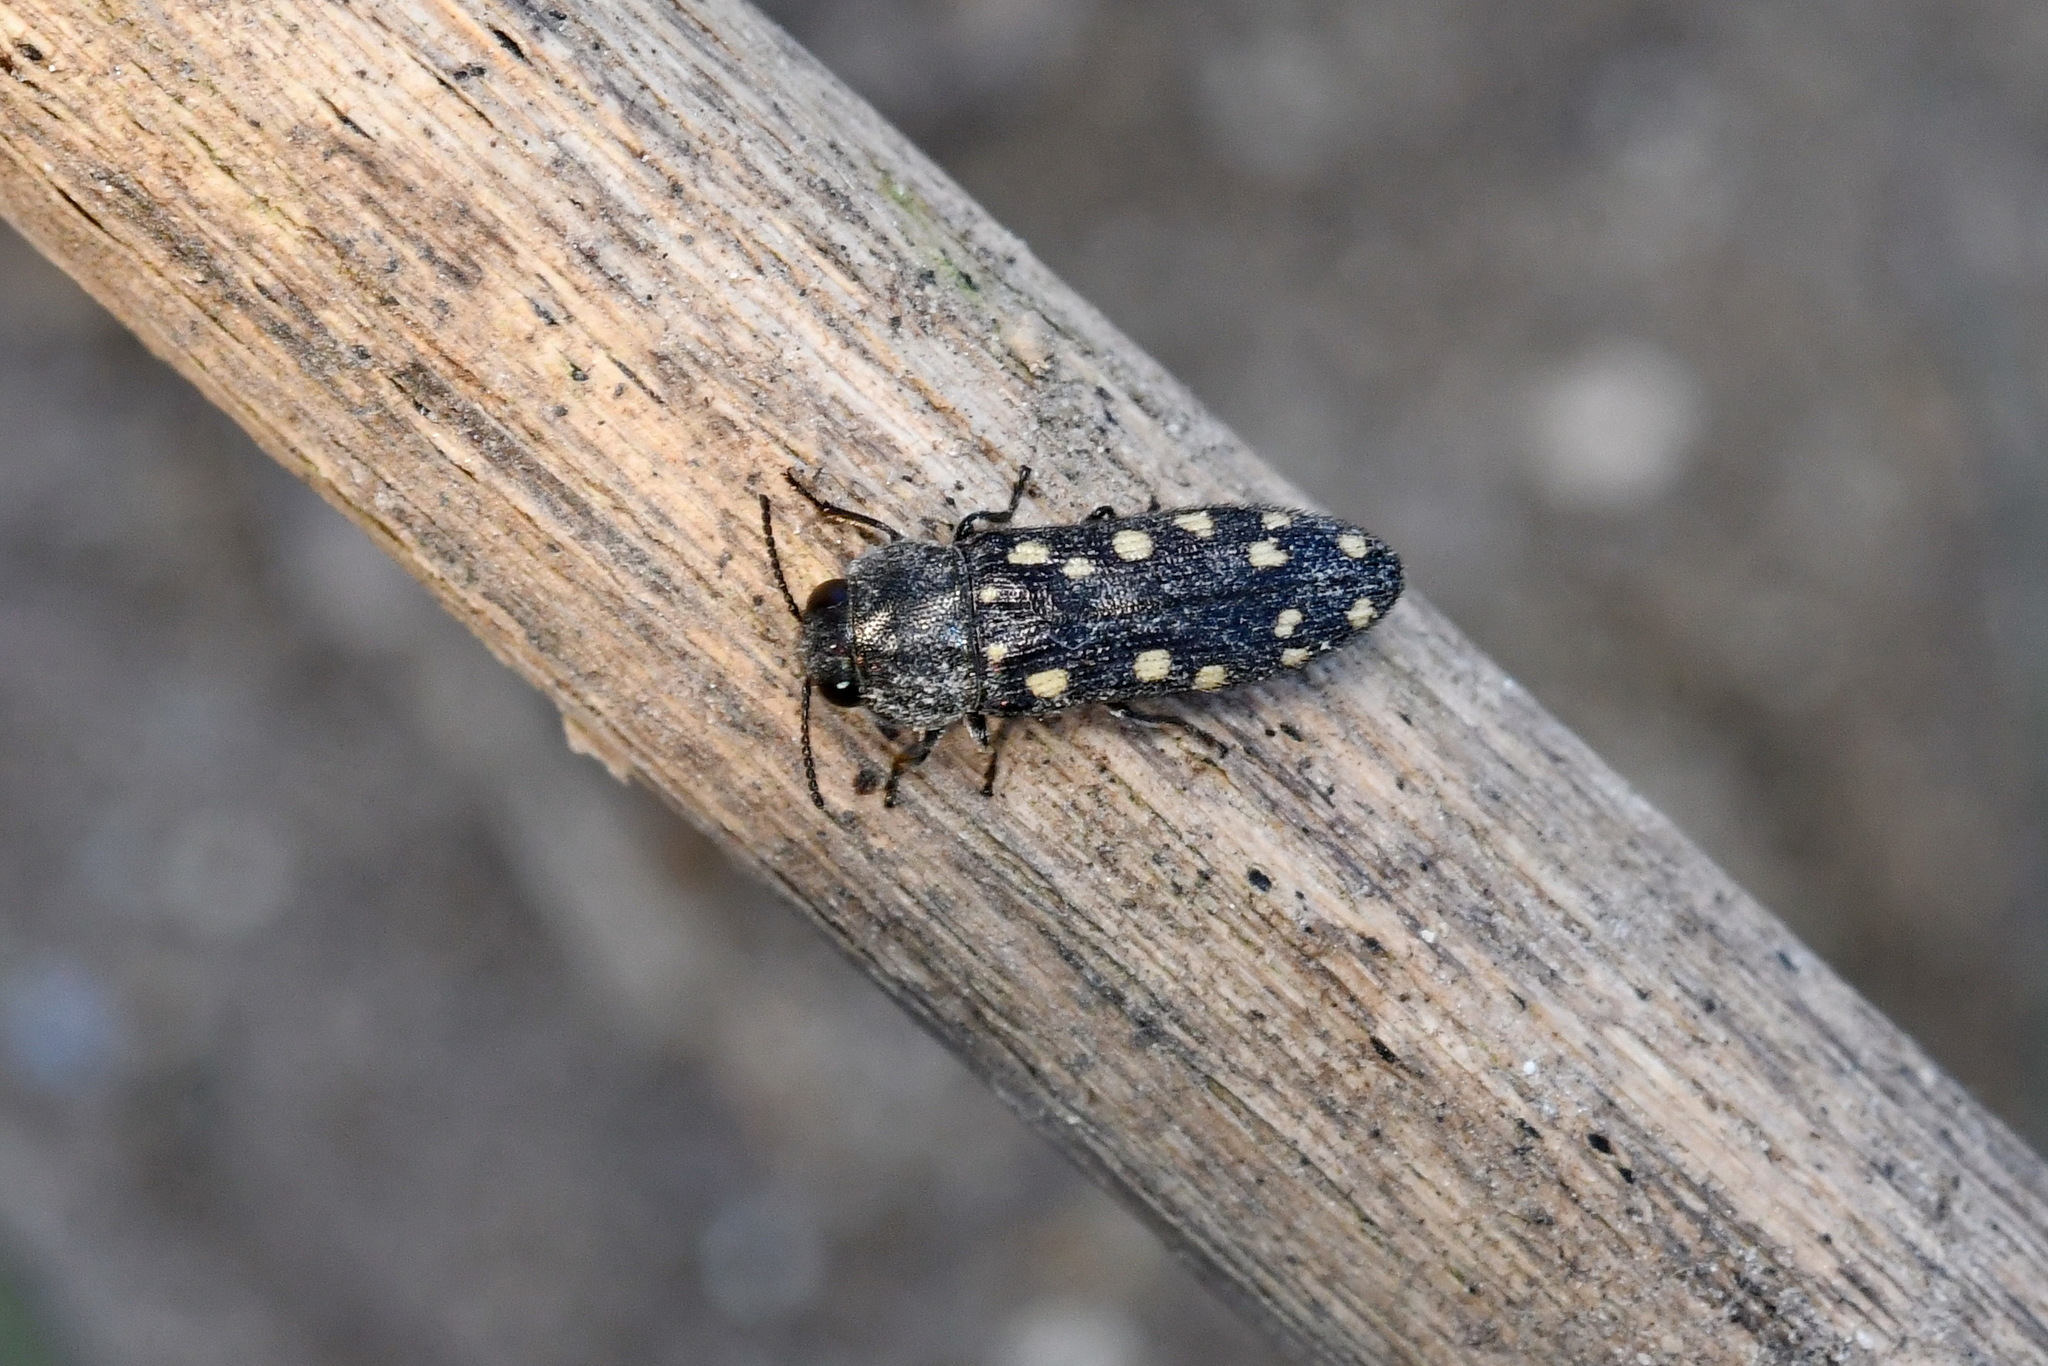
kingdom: Animalia
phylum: Arthropoda
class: Insecta
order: Coleoptera
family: Buprestidae
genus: Acmaeodera
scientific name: Acmaeodera saxicola
